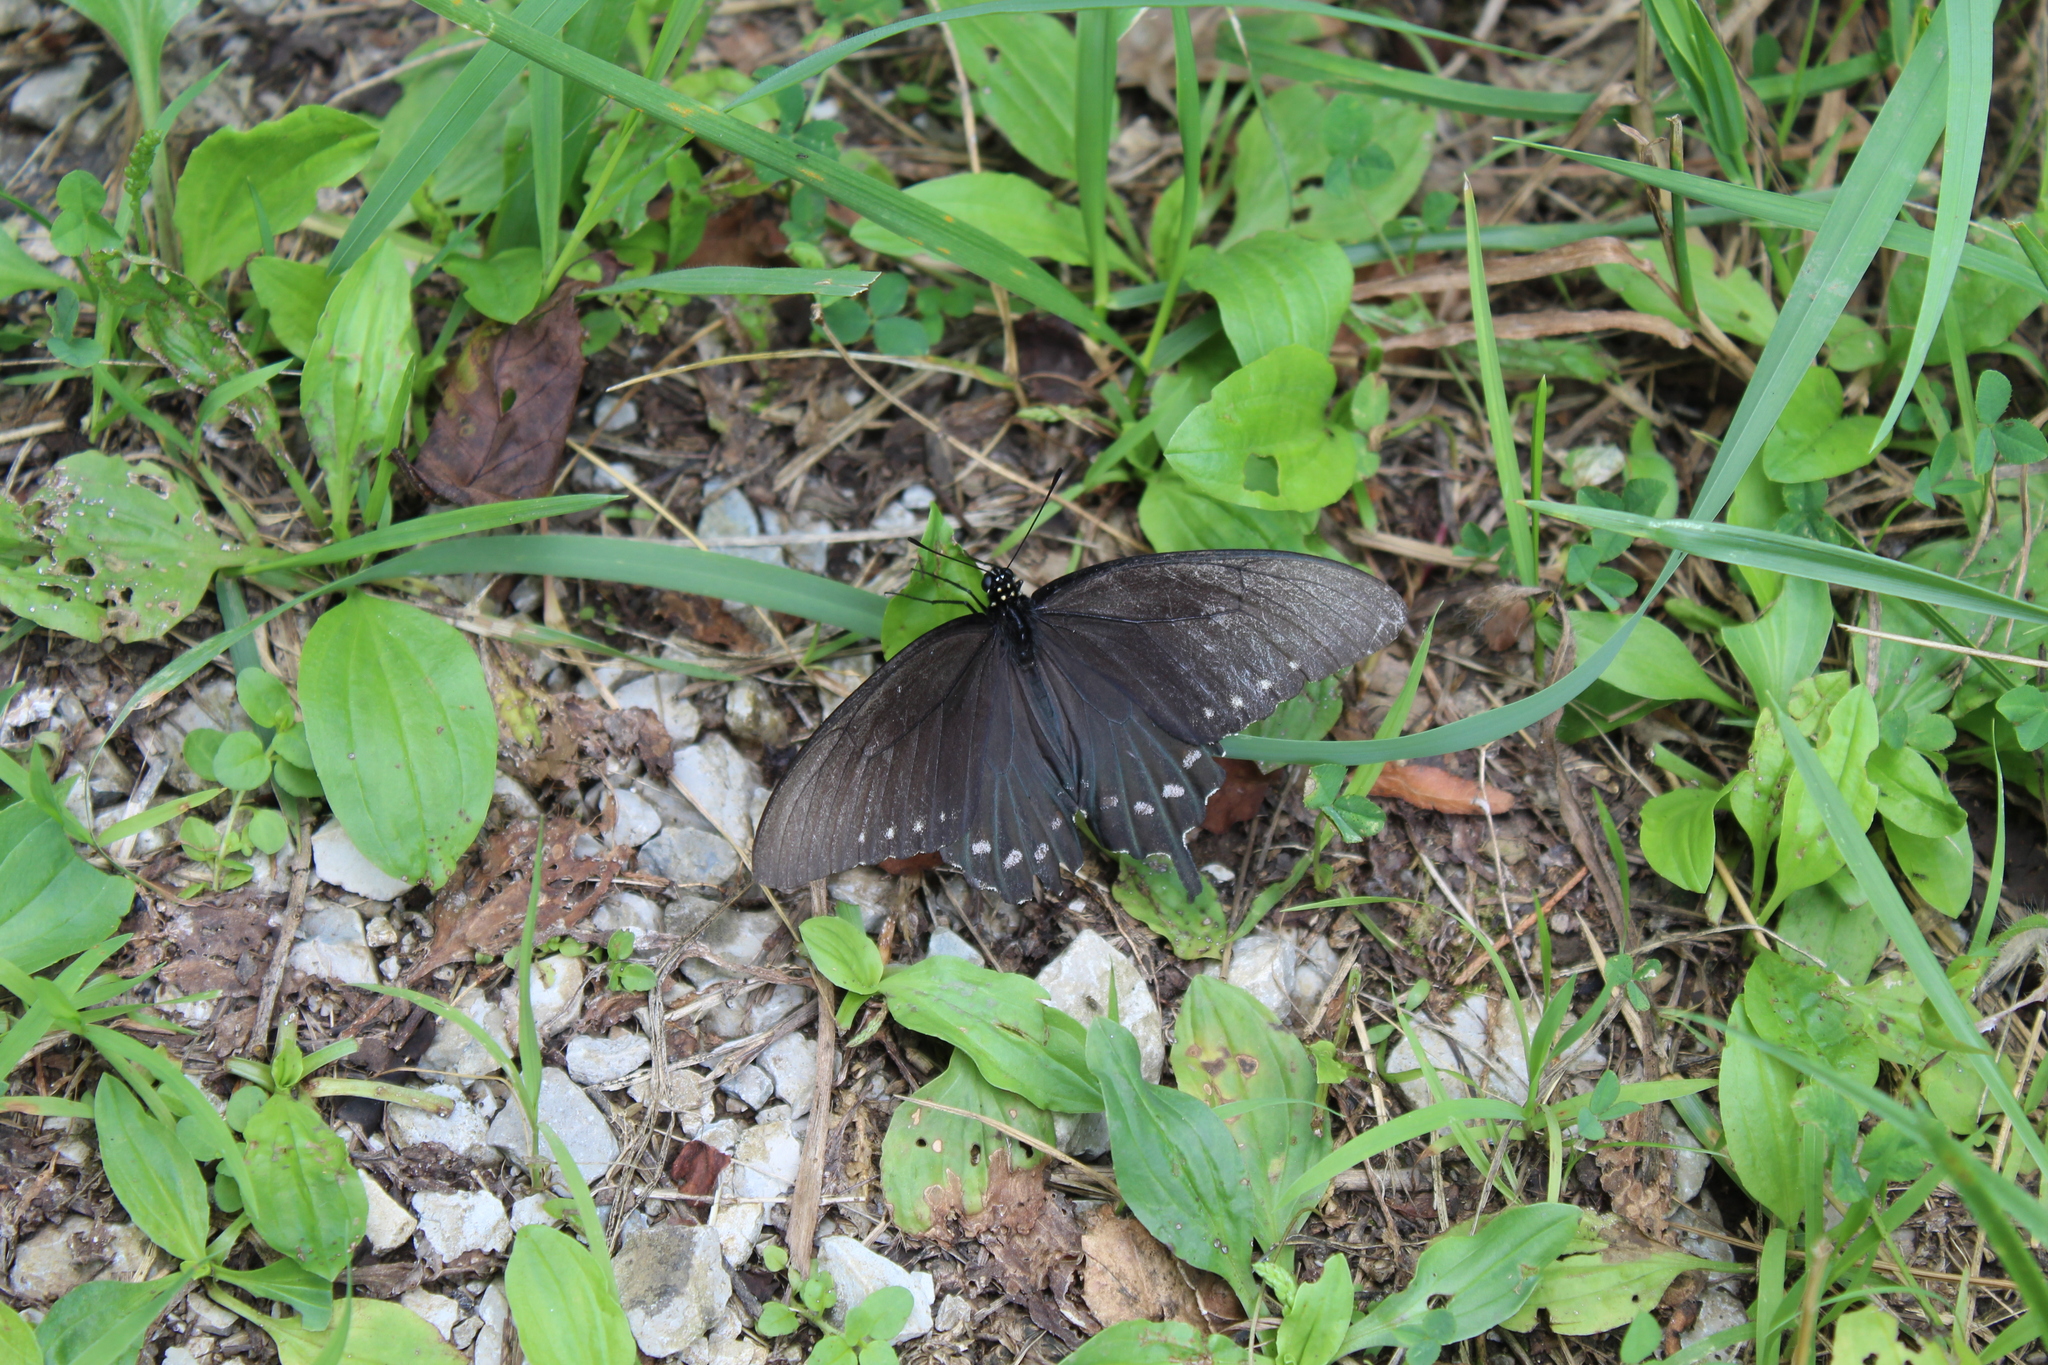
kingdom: Animalia
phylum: Arthropoda
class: Insecta
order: Lepidoptera
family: Papilionidae
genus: Battus
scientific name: Battus philenor
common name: Pipevine swallowtail
